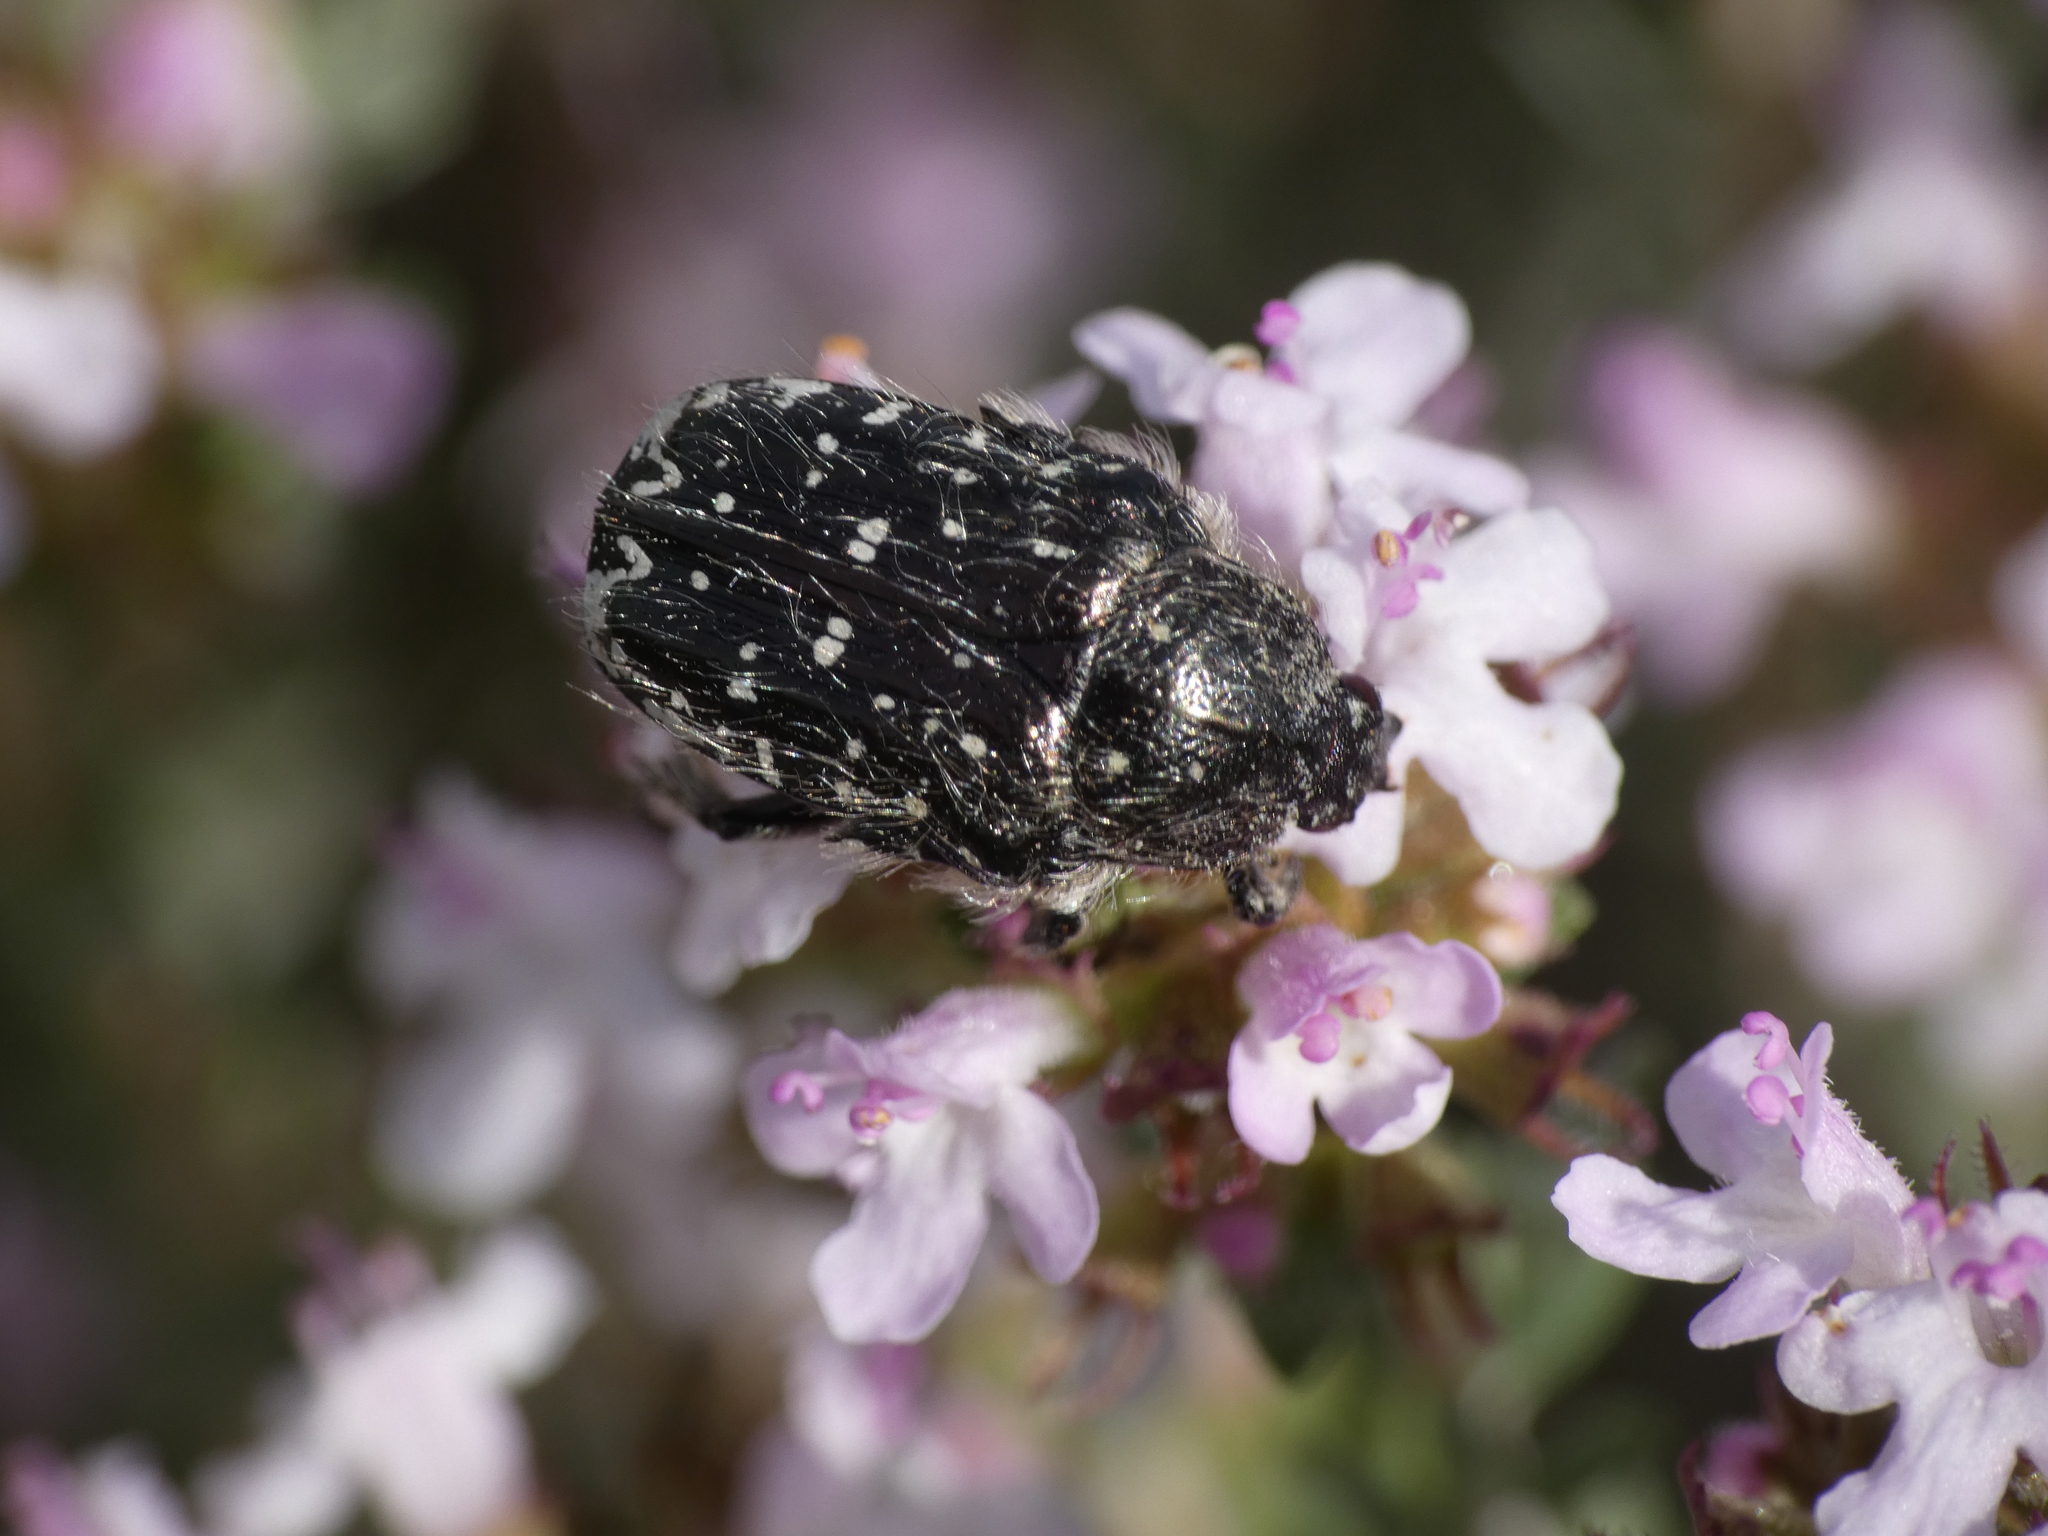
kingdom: Animalia
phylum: Arthropoda
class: Insecta
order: Coleoptera
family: Scarabaeidae
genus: Oxythyrea
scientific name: Oxythyrea funesta
